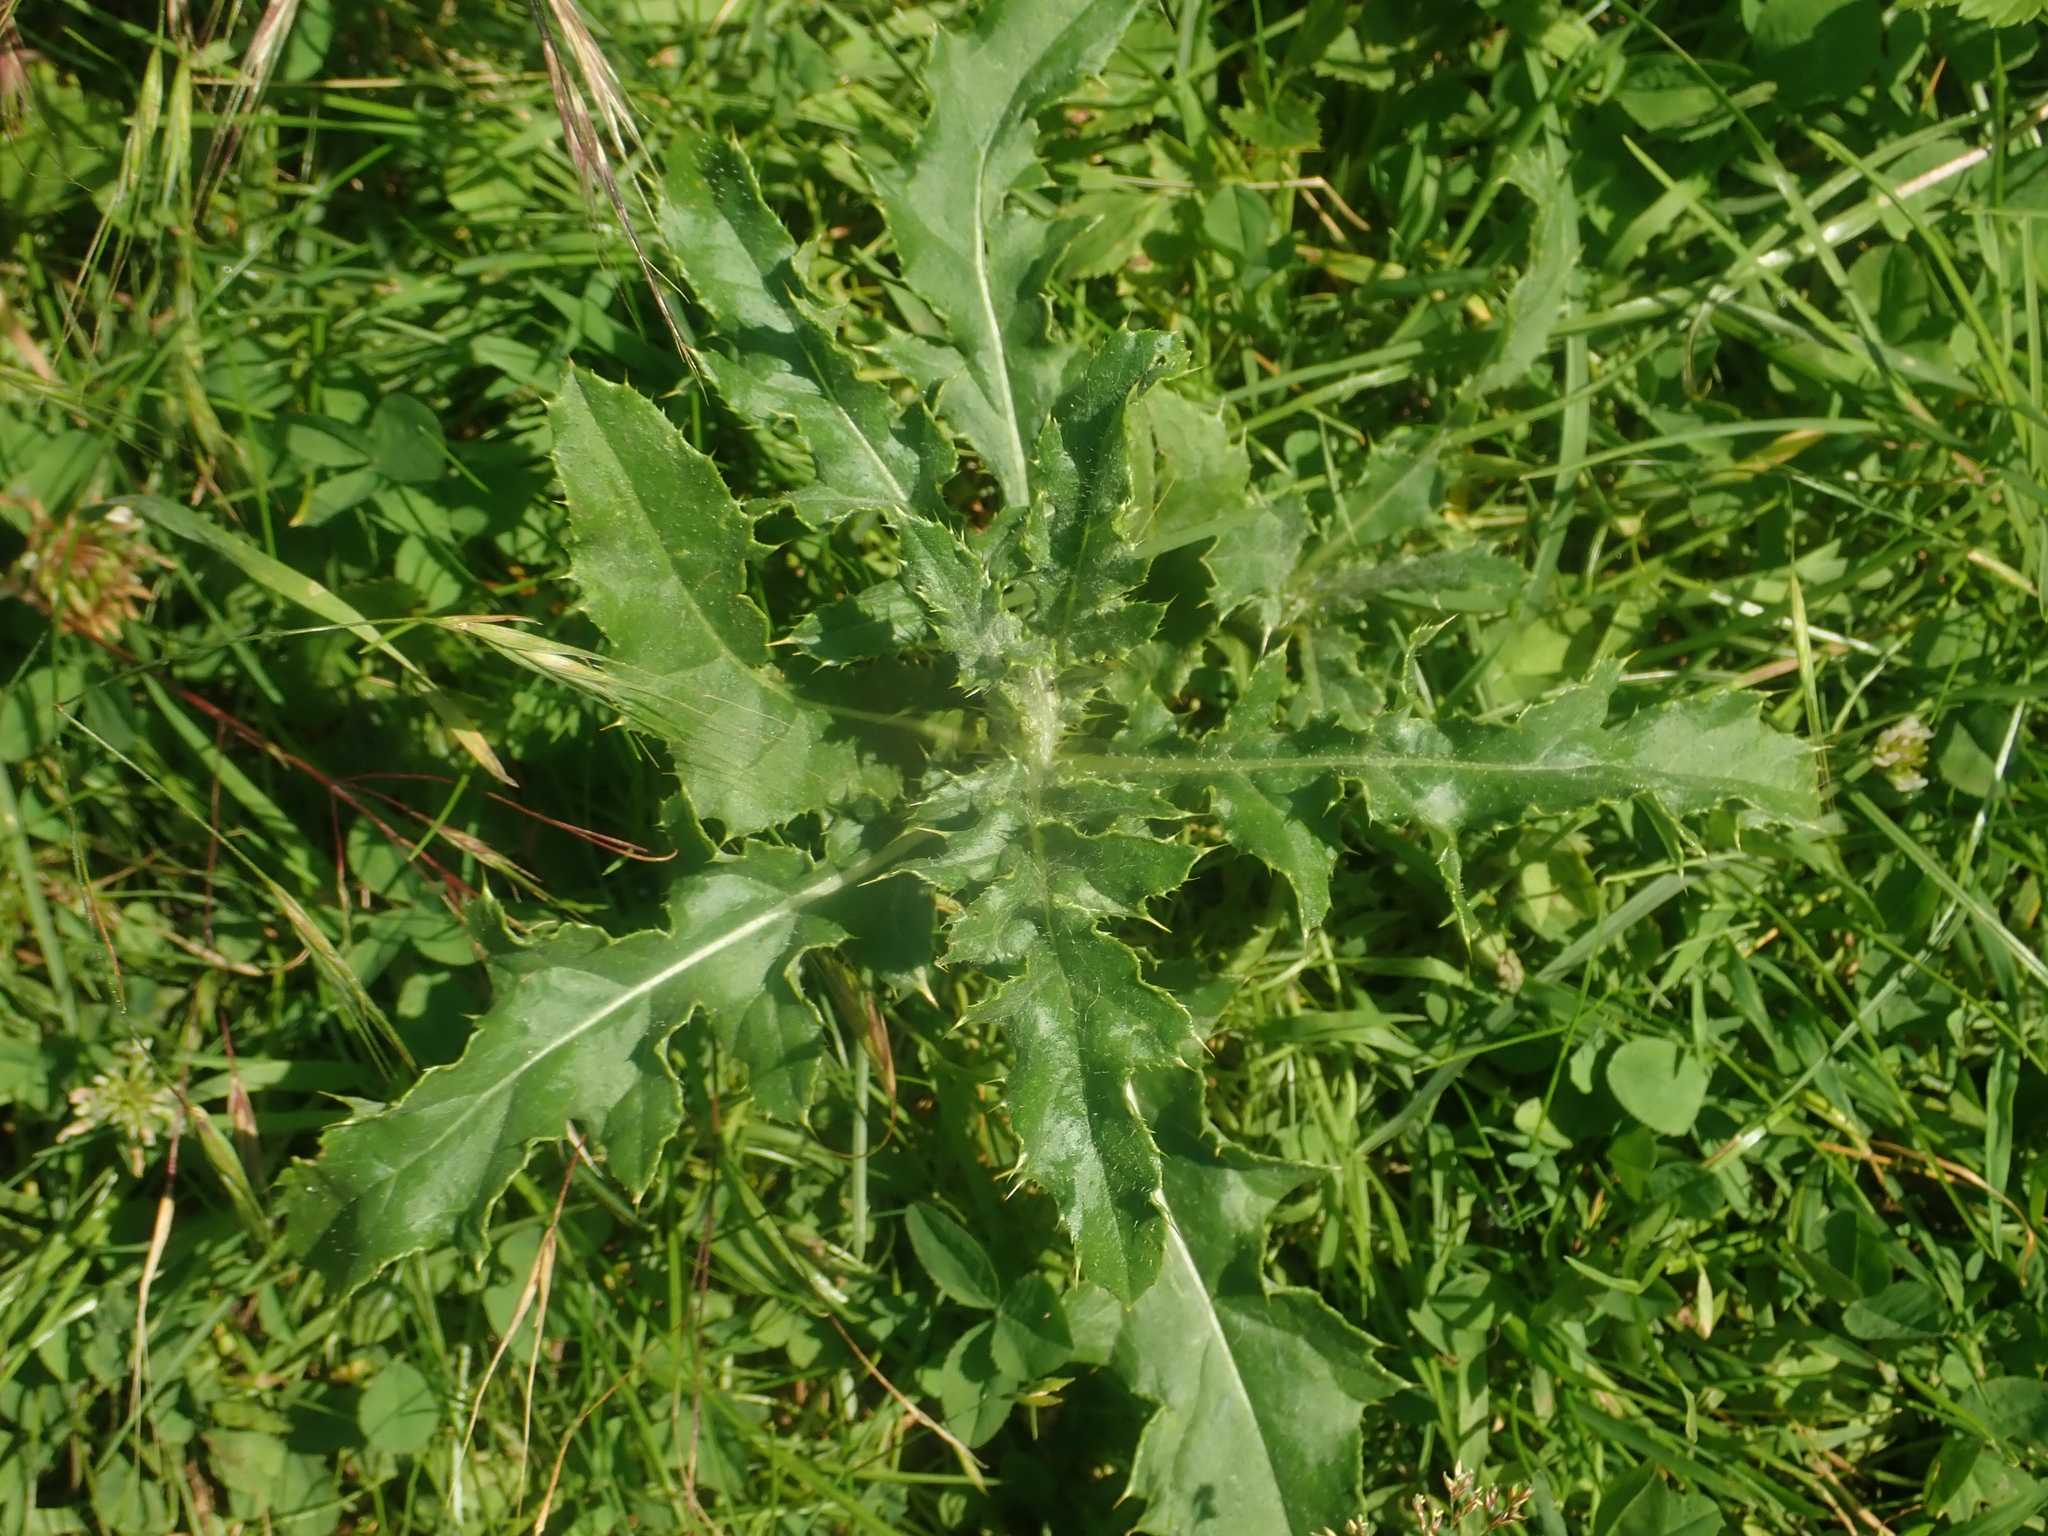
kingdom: Plantae
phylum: Tracheophyta
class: Magnoliopsida
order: Asterales
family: Asteraceae
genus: Cirsium
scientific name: Cirsium arvense
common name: Creeping thistle
